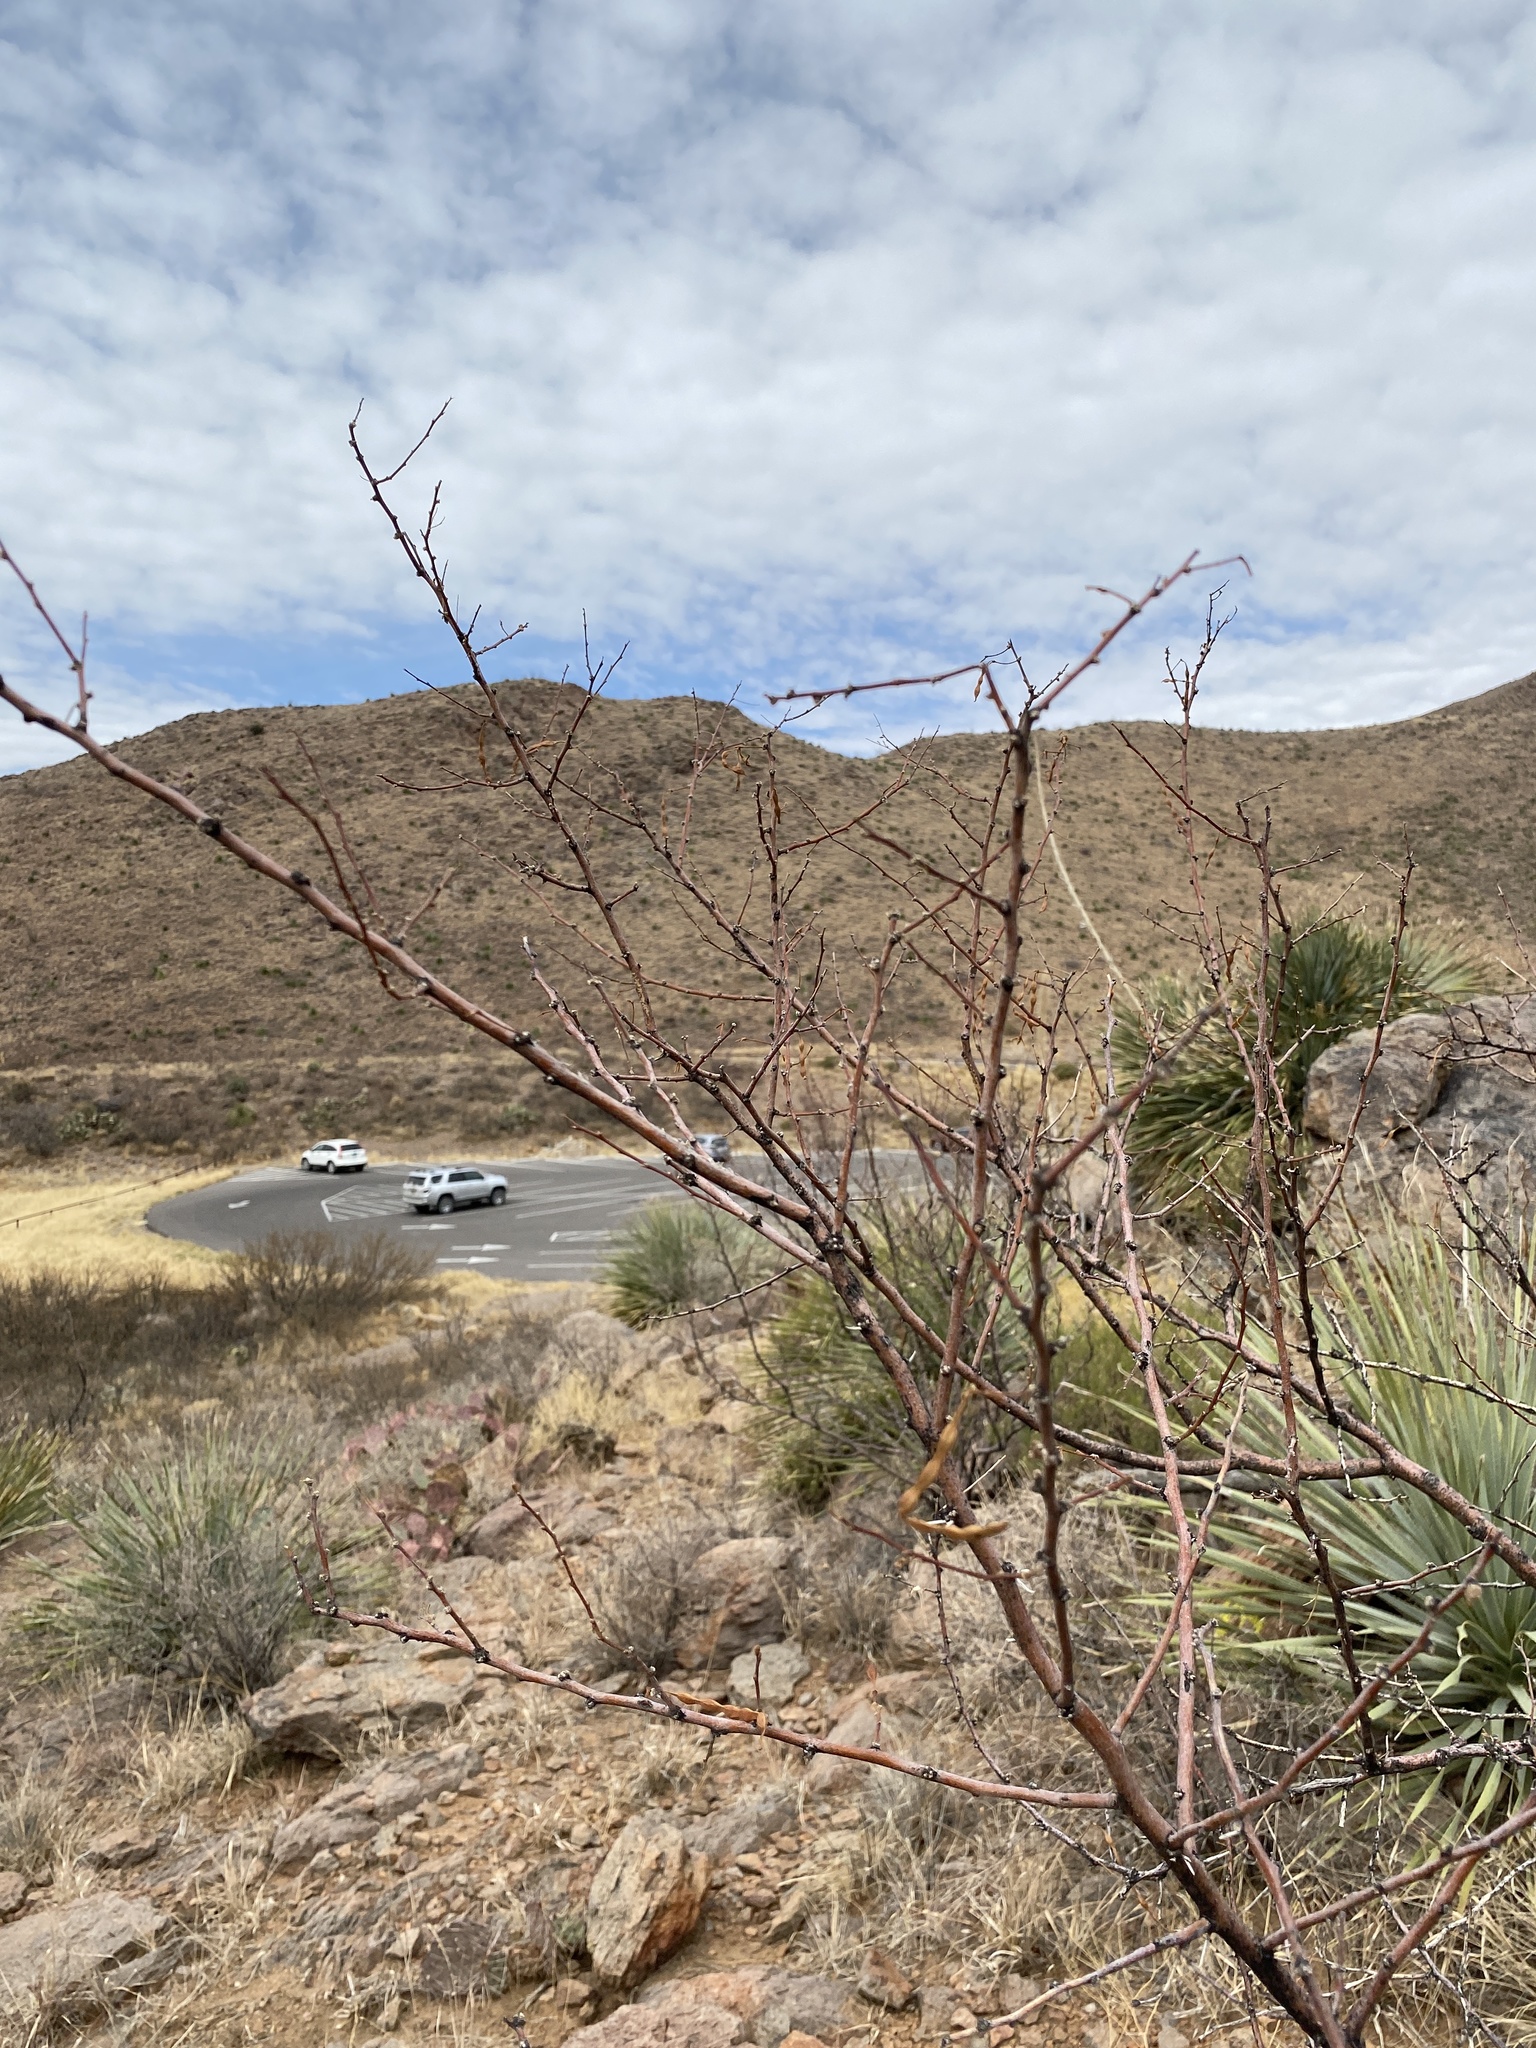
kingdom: Plantae
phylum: Tracheophyta
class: Magnoliopsida
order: Fabales
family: Fabaceae
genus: Vachellia
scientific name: Vachellia constricta
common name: Mescat acacia
